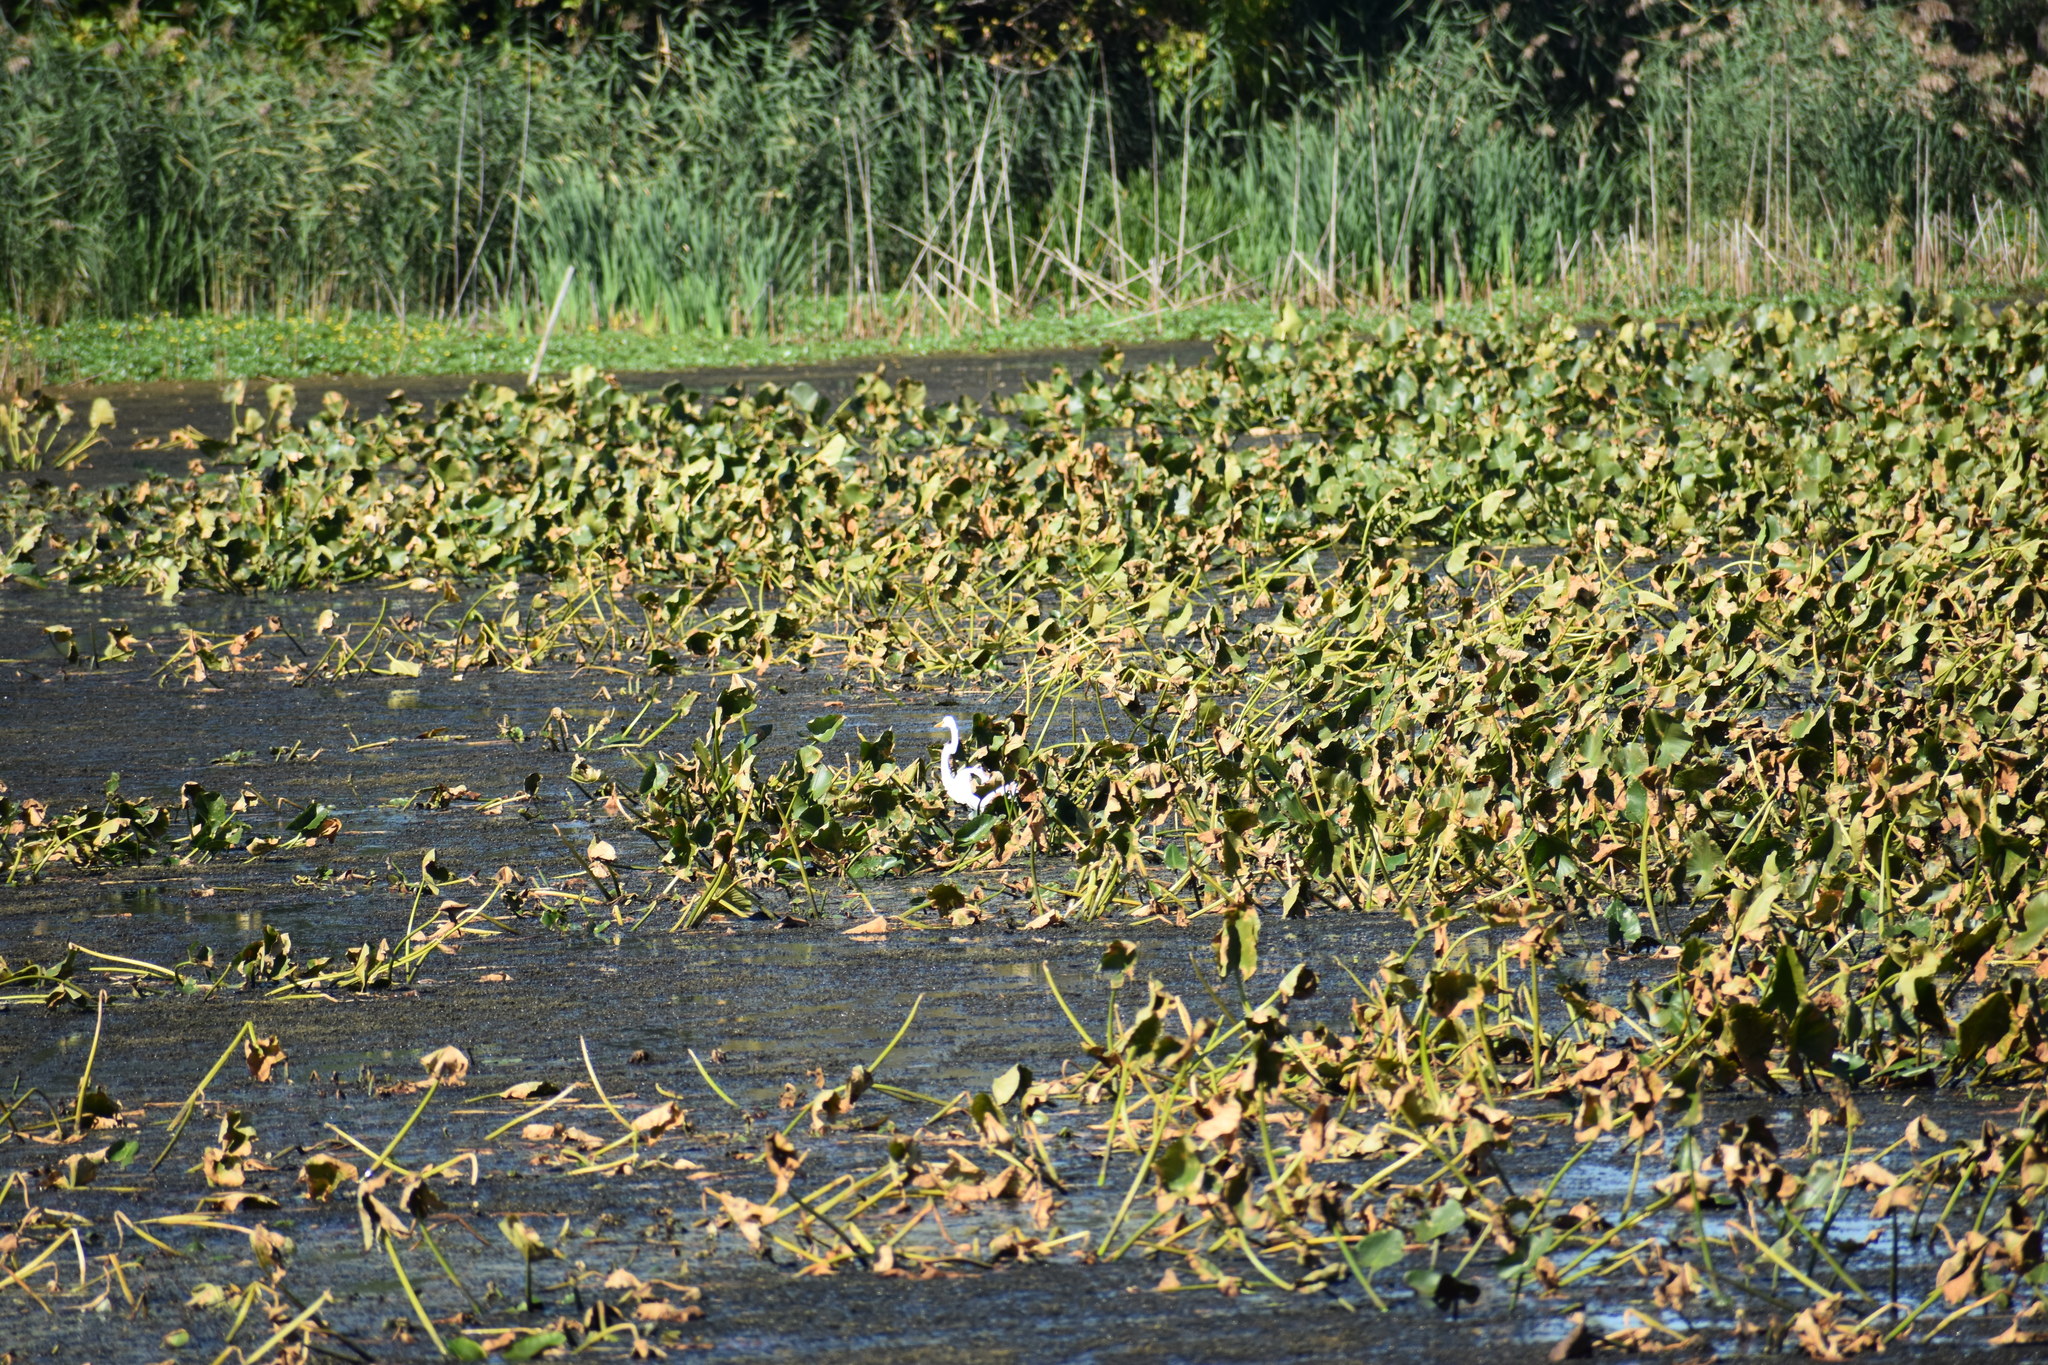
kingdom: Animalia
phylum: Chordata
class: Aves
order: Pelecaniformes
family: Ardeidae
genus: Ardea
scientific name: Ardea alba
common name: Great egret
